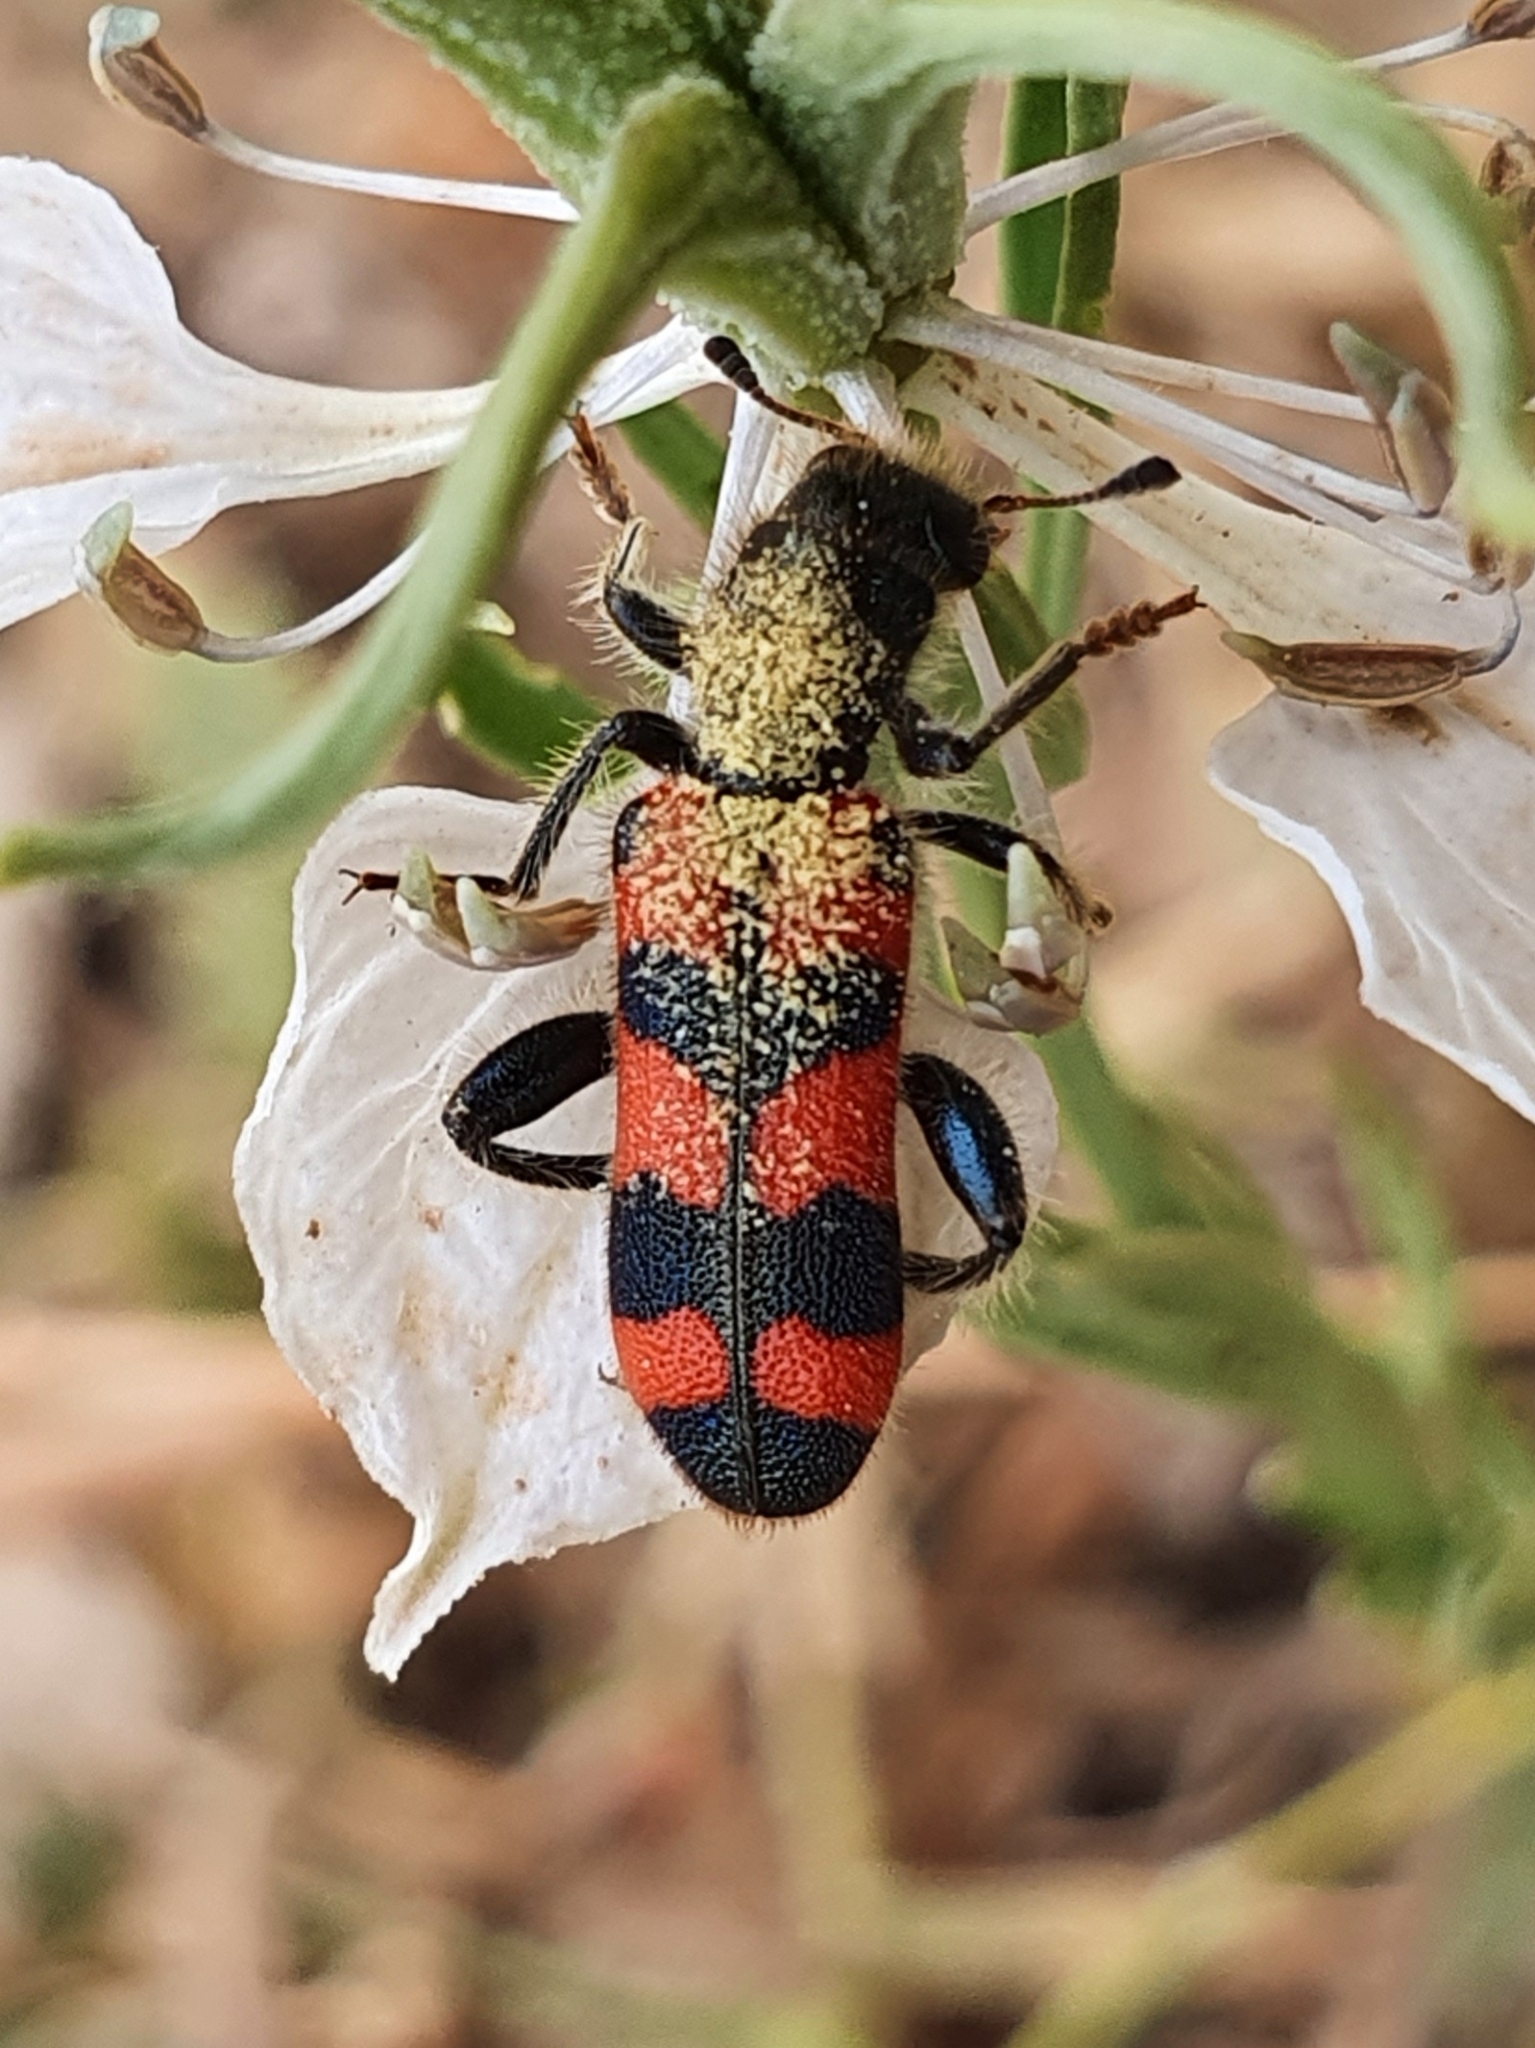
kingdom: Animalia
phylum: Arthropoda
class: Insecta
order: Coleoptera
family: Cleridae
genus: Trichodes
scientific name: Trichodes leucopsideus
